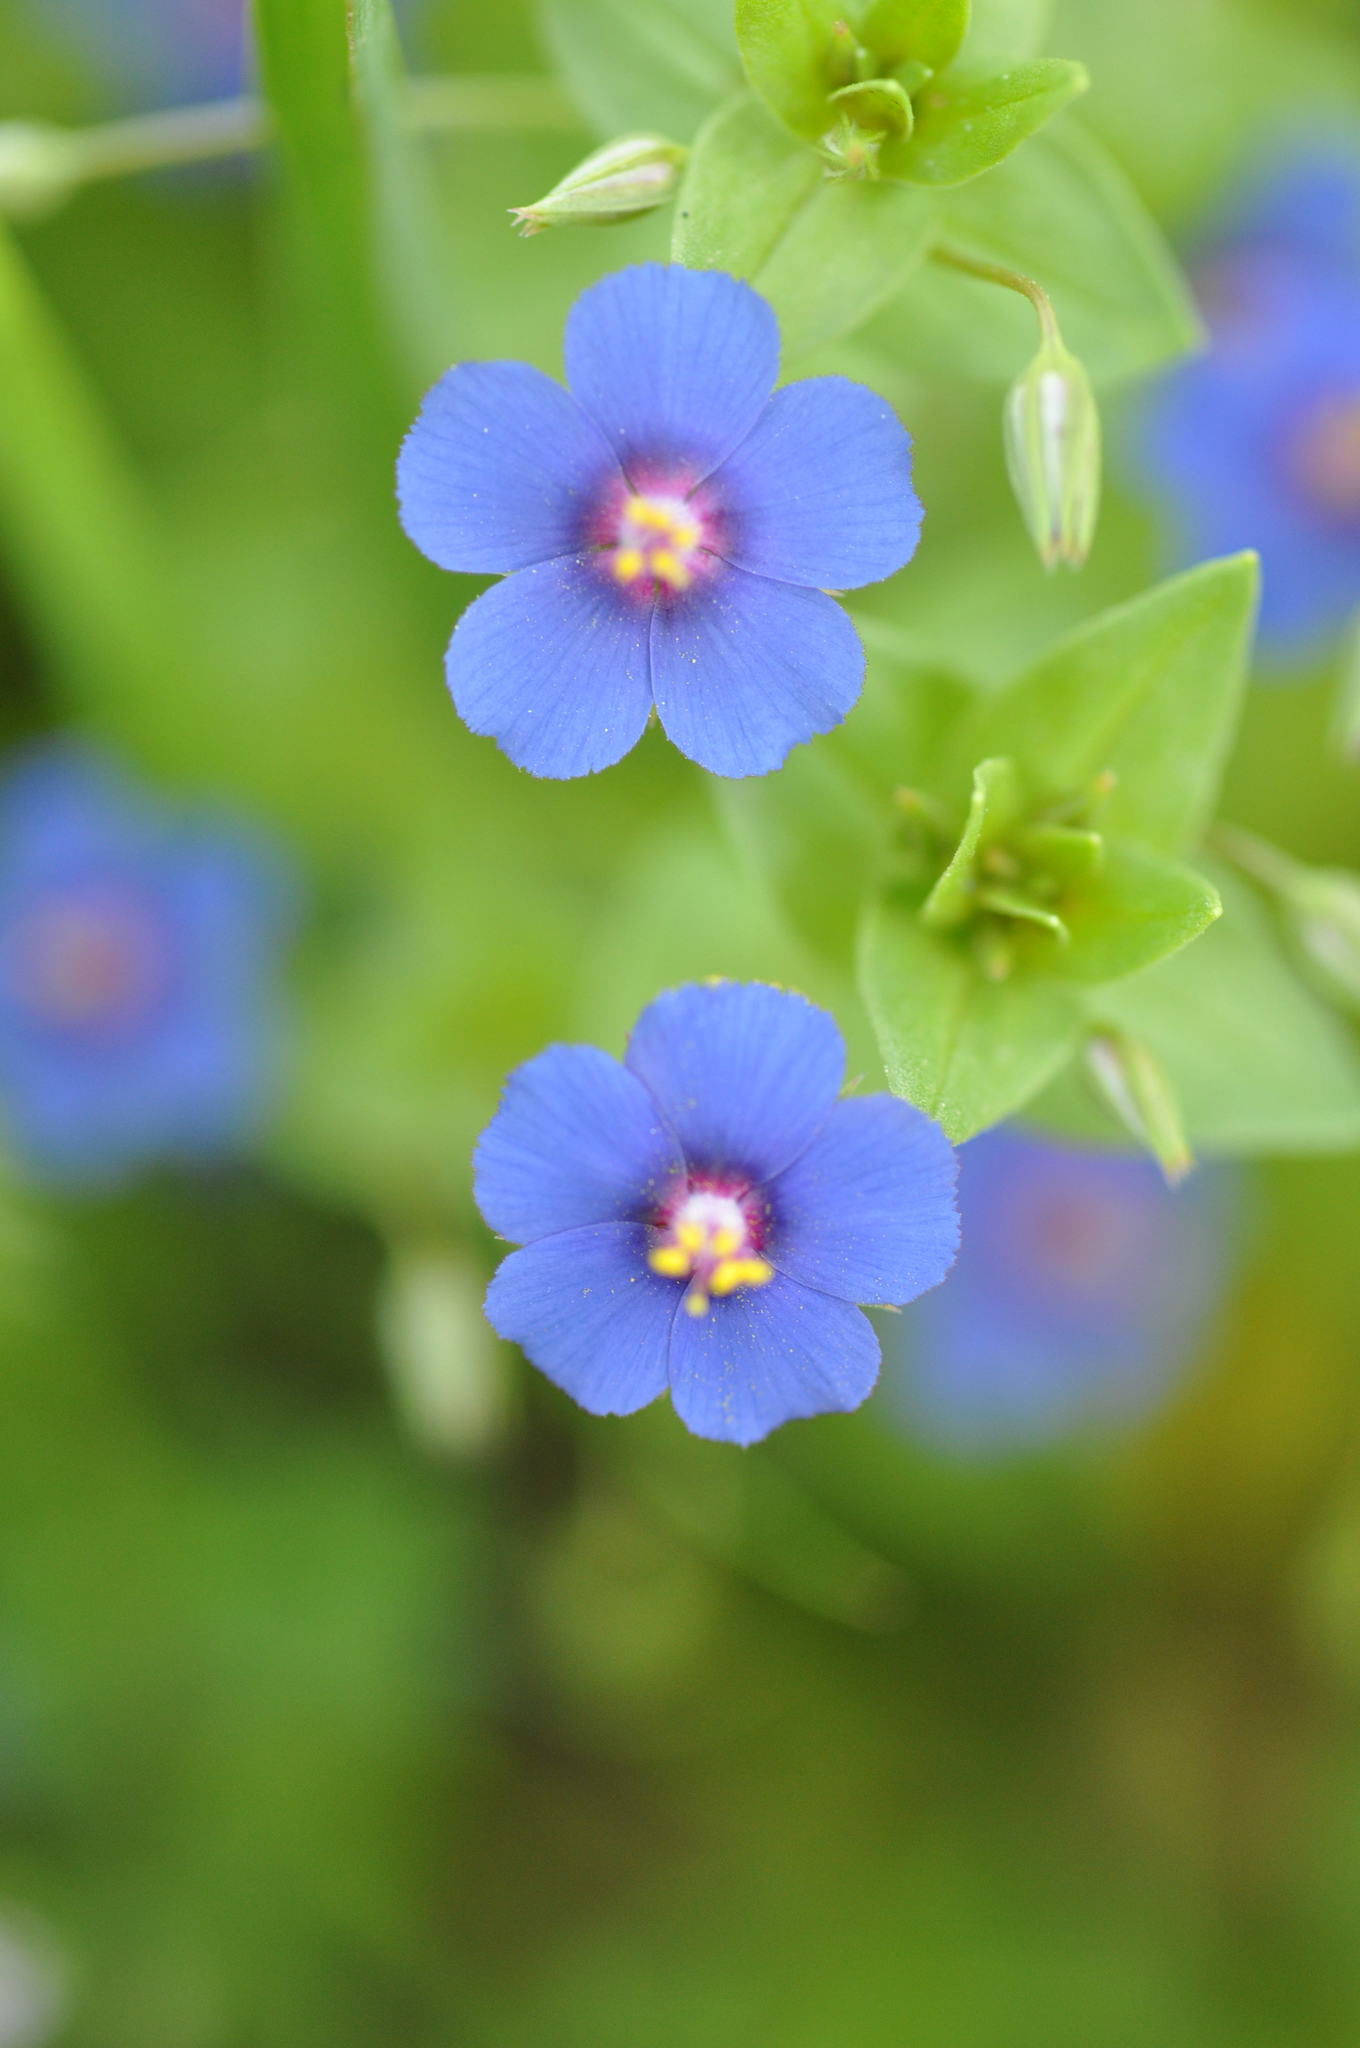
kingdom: Plantae
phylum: Tracheophyta
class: Magnoliopsida
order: Ericales
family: Primulaceae
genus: Lysimachia
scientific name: Lysimachia loeflingii
